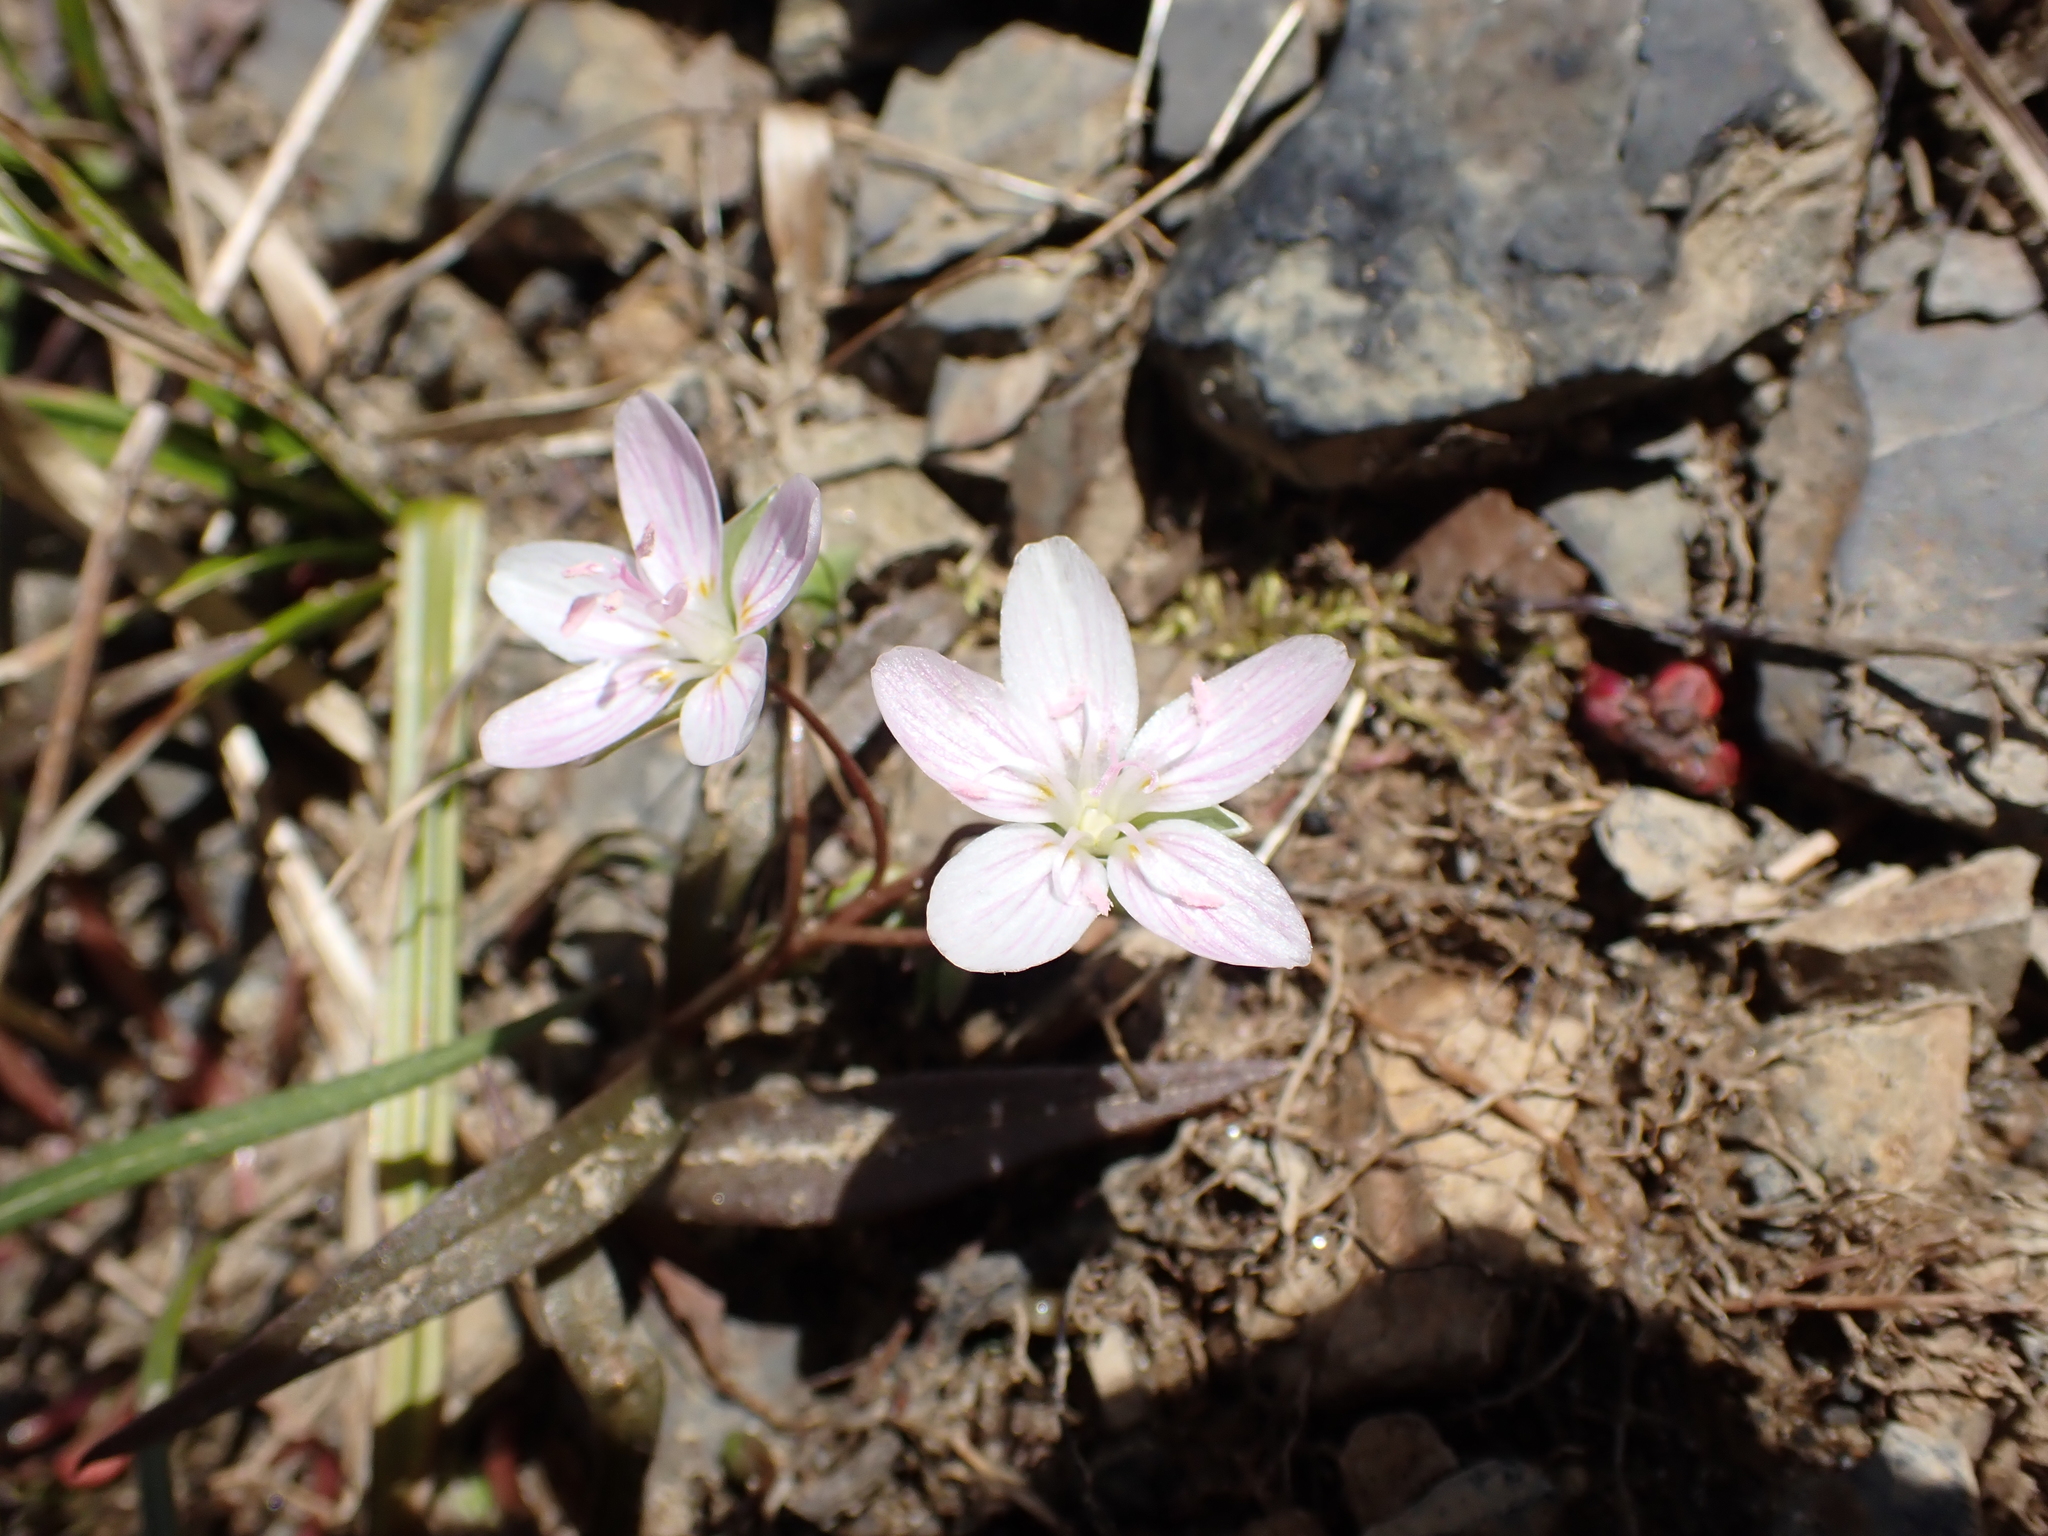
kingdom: Plantae
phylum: Tracheophyta
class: Magnoliopsida
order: Caryophyllales
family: Montiaceae
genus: Claytonia
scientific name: Claytonia virginica
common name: Virginia springbeauty
